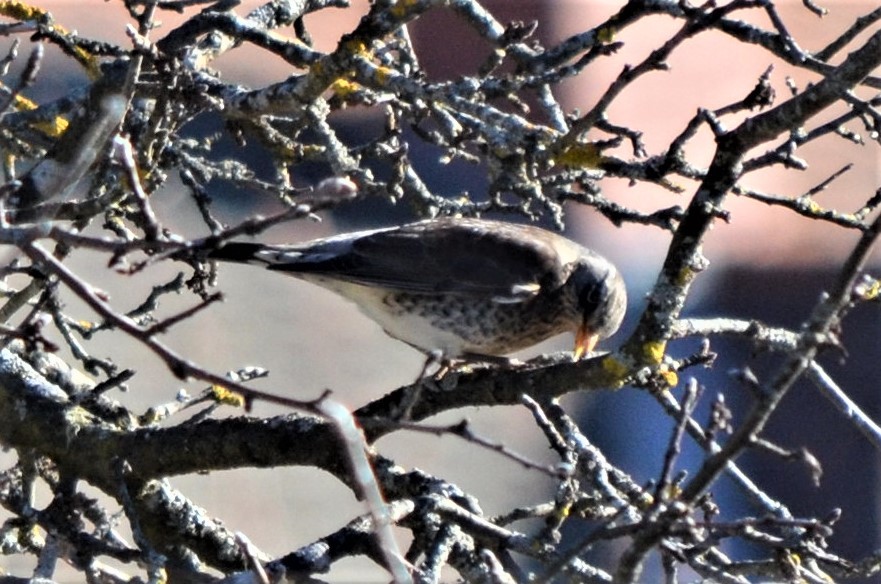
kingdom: Animalia
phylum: Chordata
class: Aves
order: Passeriformes
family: Turdidae
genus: Turdus
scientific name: Turdus pilaris
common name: Fieldfare
